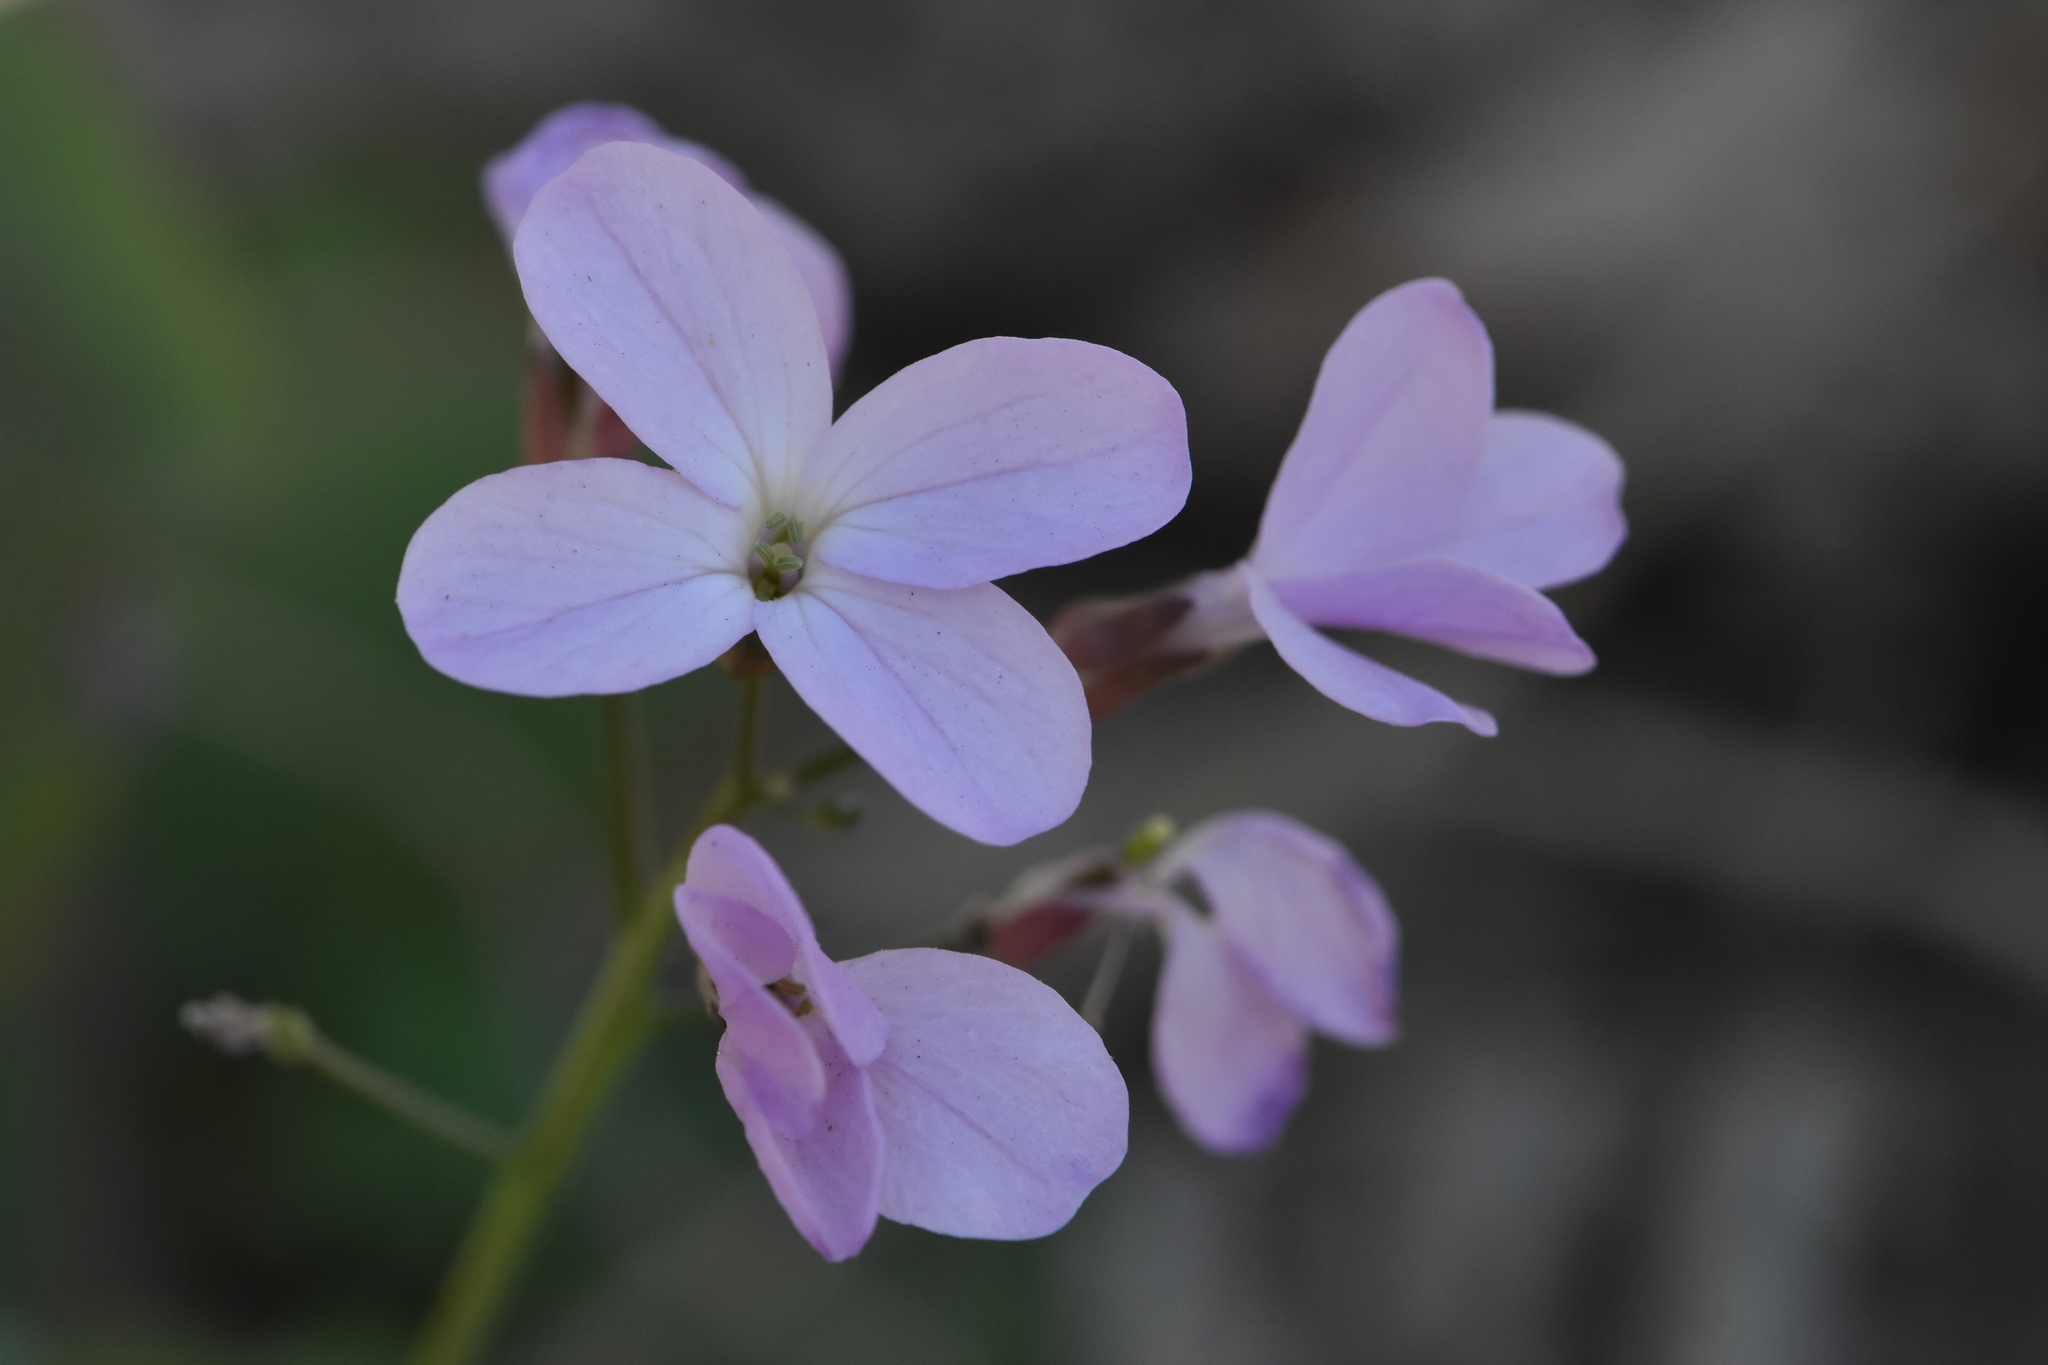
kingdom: Plantae
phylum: Tracheophyta
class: Magnoliopsida
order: Brassicales
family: Brassicaceae
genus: Cardamine
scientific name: Cardamine quinquefolia
